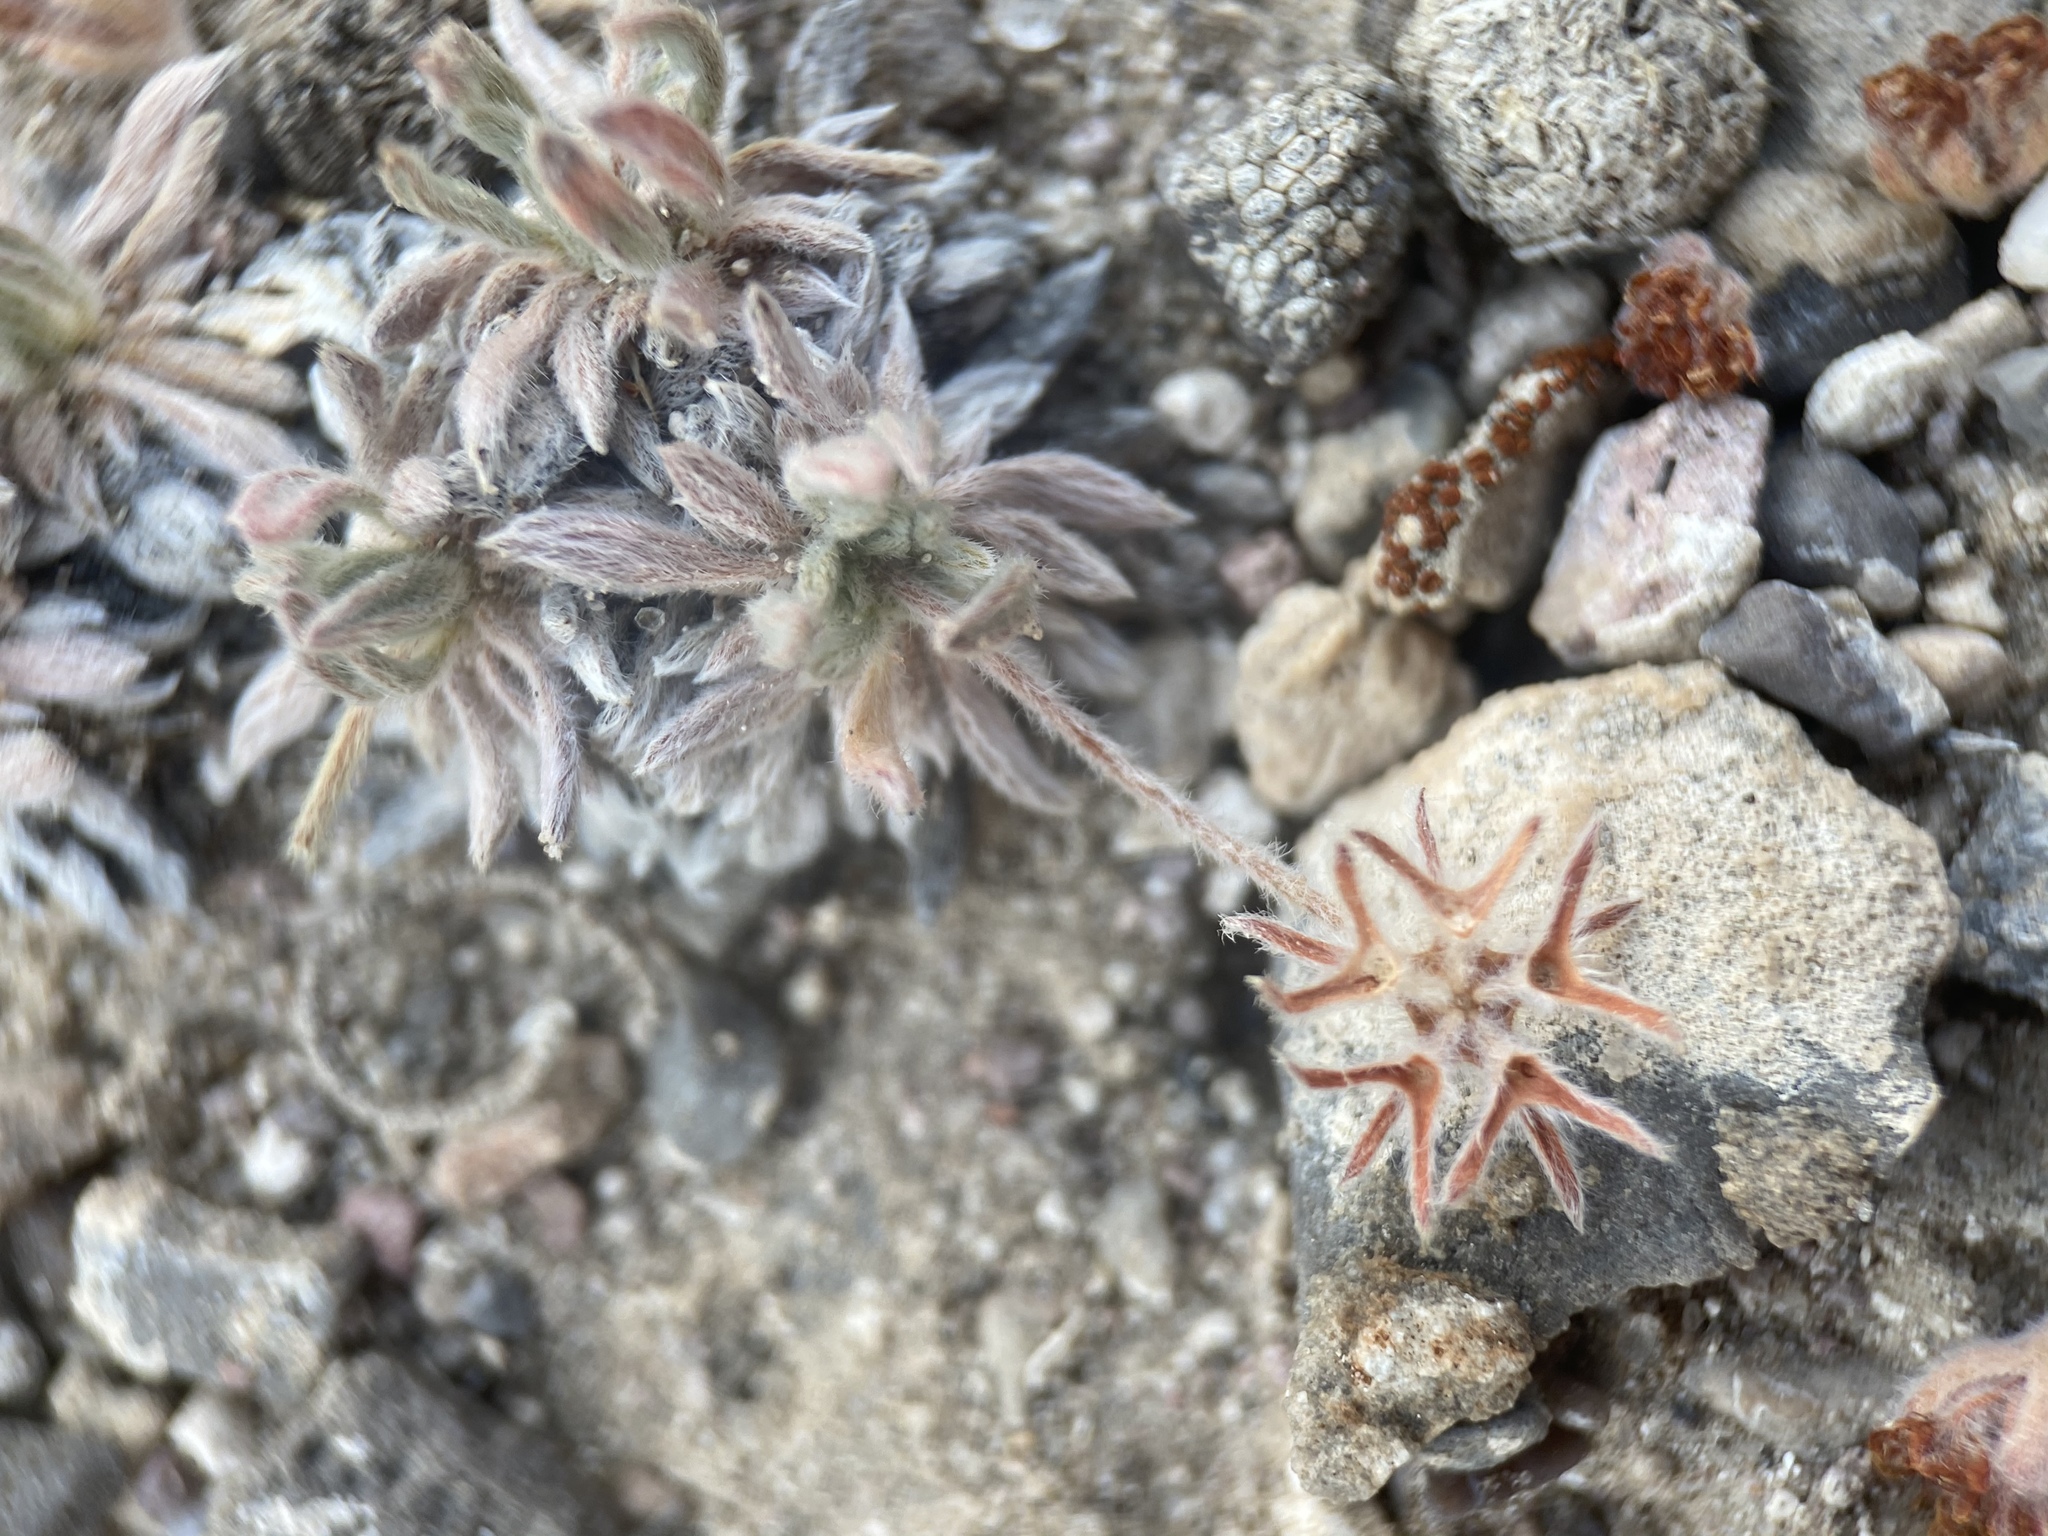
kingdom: Plantae
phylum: Tracheophyta
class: Magnoliopsida
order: Caryophyllales
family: Polygonaceae
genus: Eriogonum
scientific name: Eriogonum villiflorum
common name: Gray's wild buckwheat
